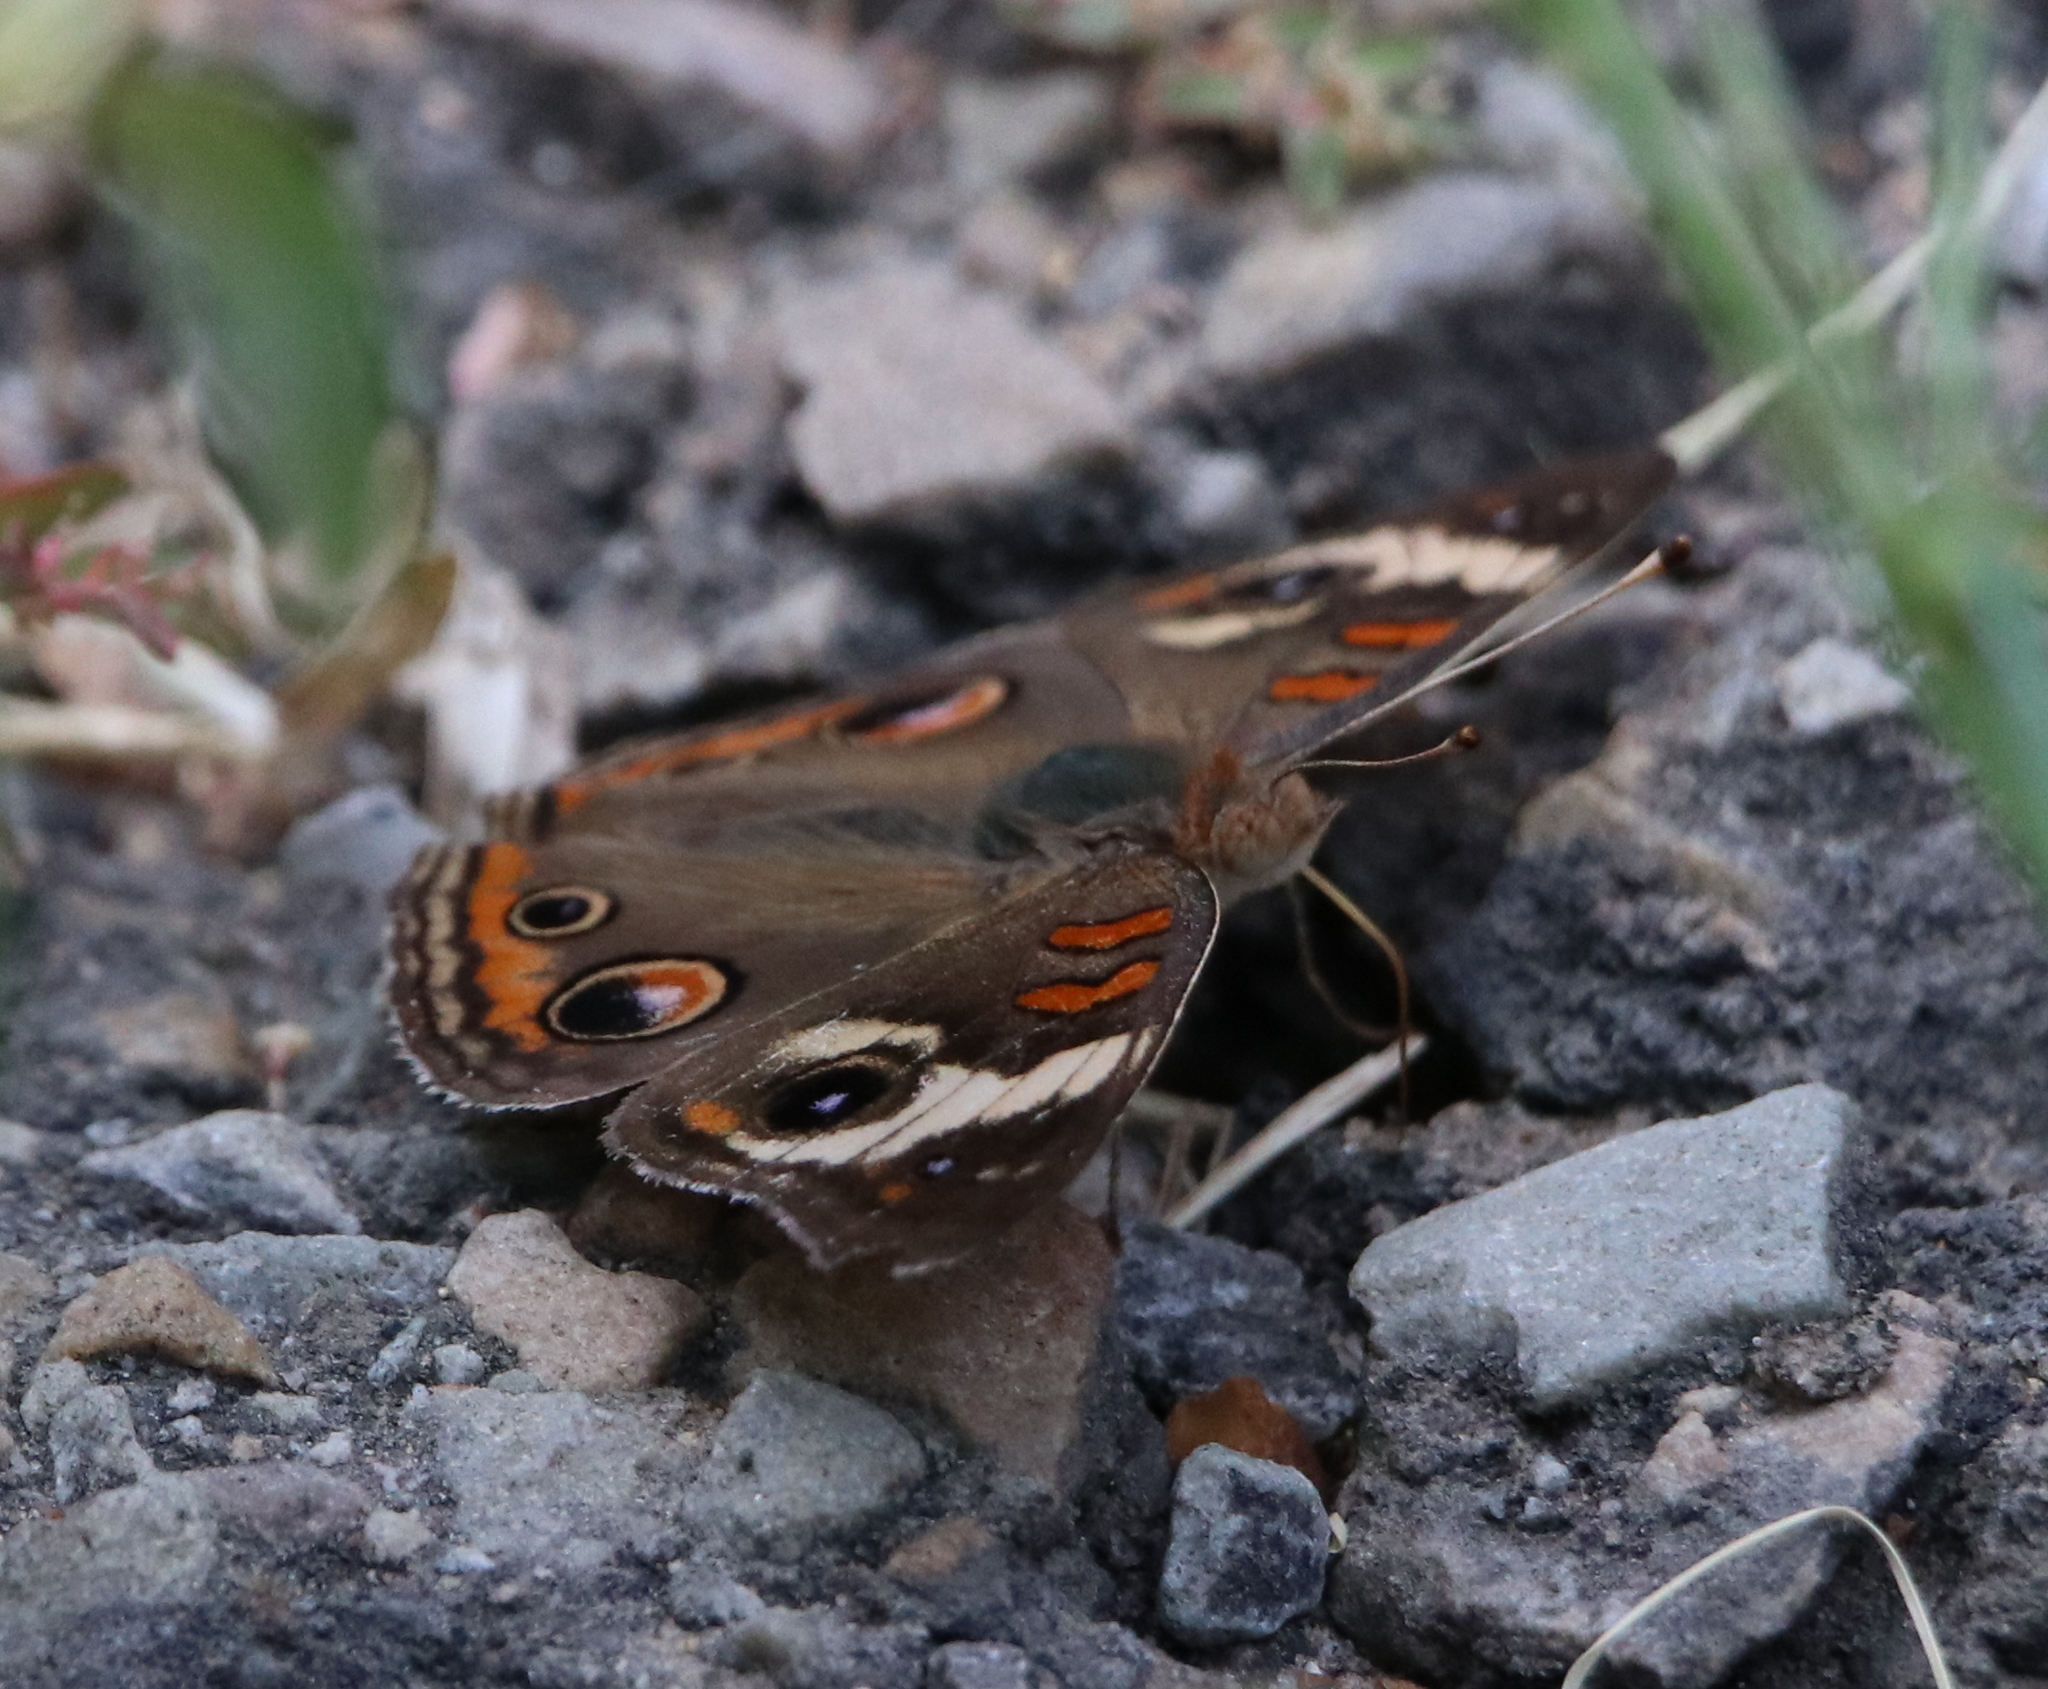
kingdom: Animalia
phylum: Arthropoda
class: Insecta
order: Lepidoptera
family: Nymphalidae
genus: Junonia
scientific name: Junonia coenia
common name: Common buckeye
